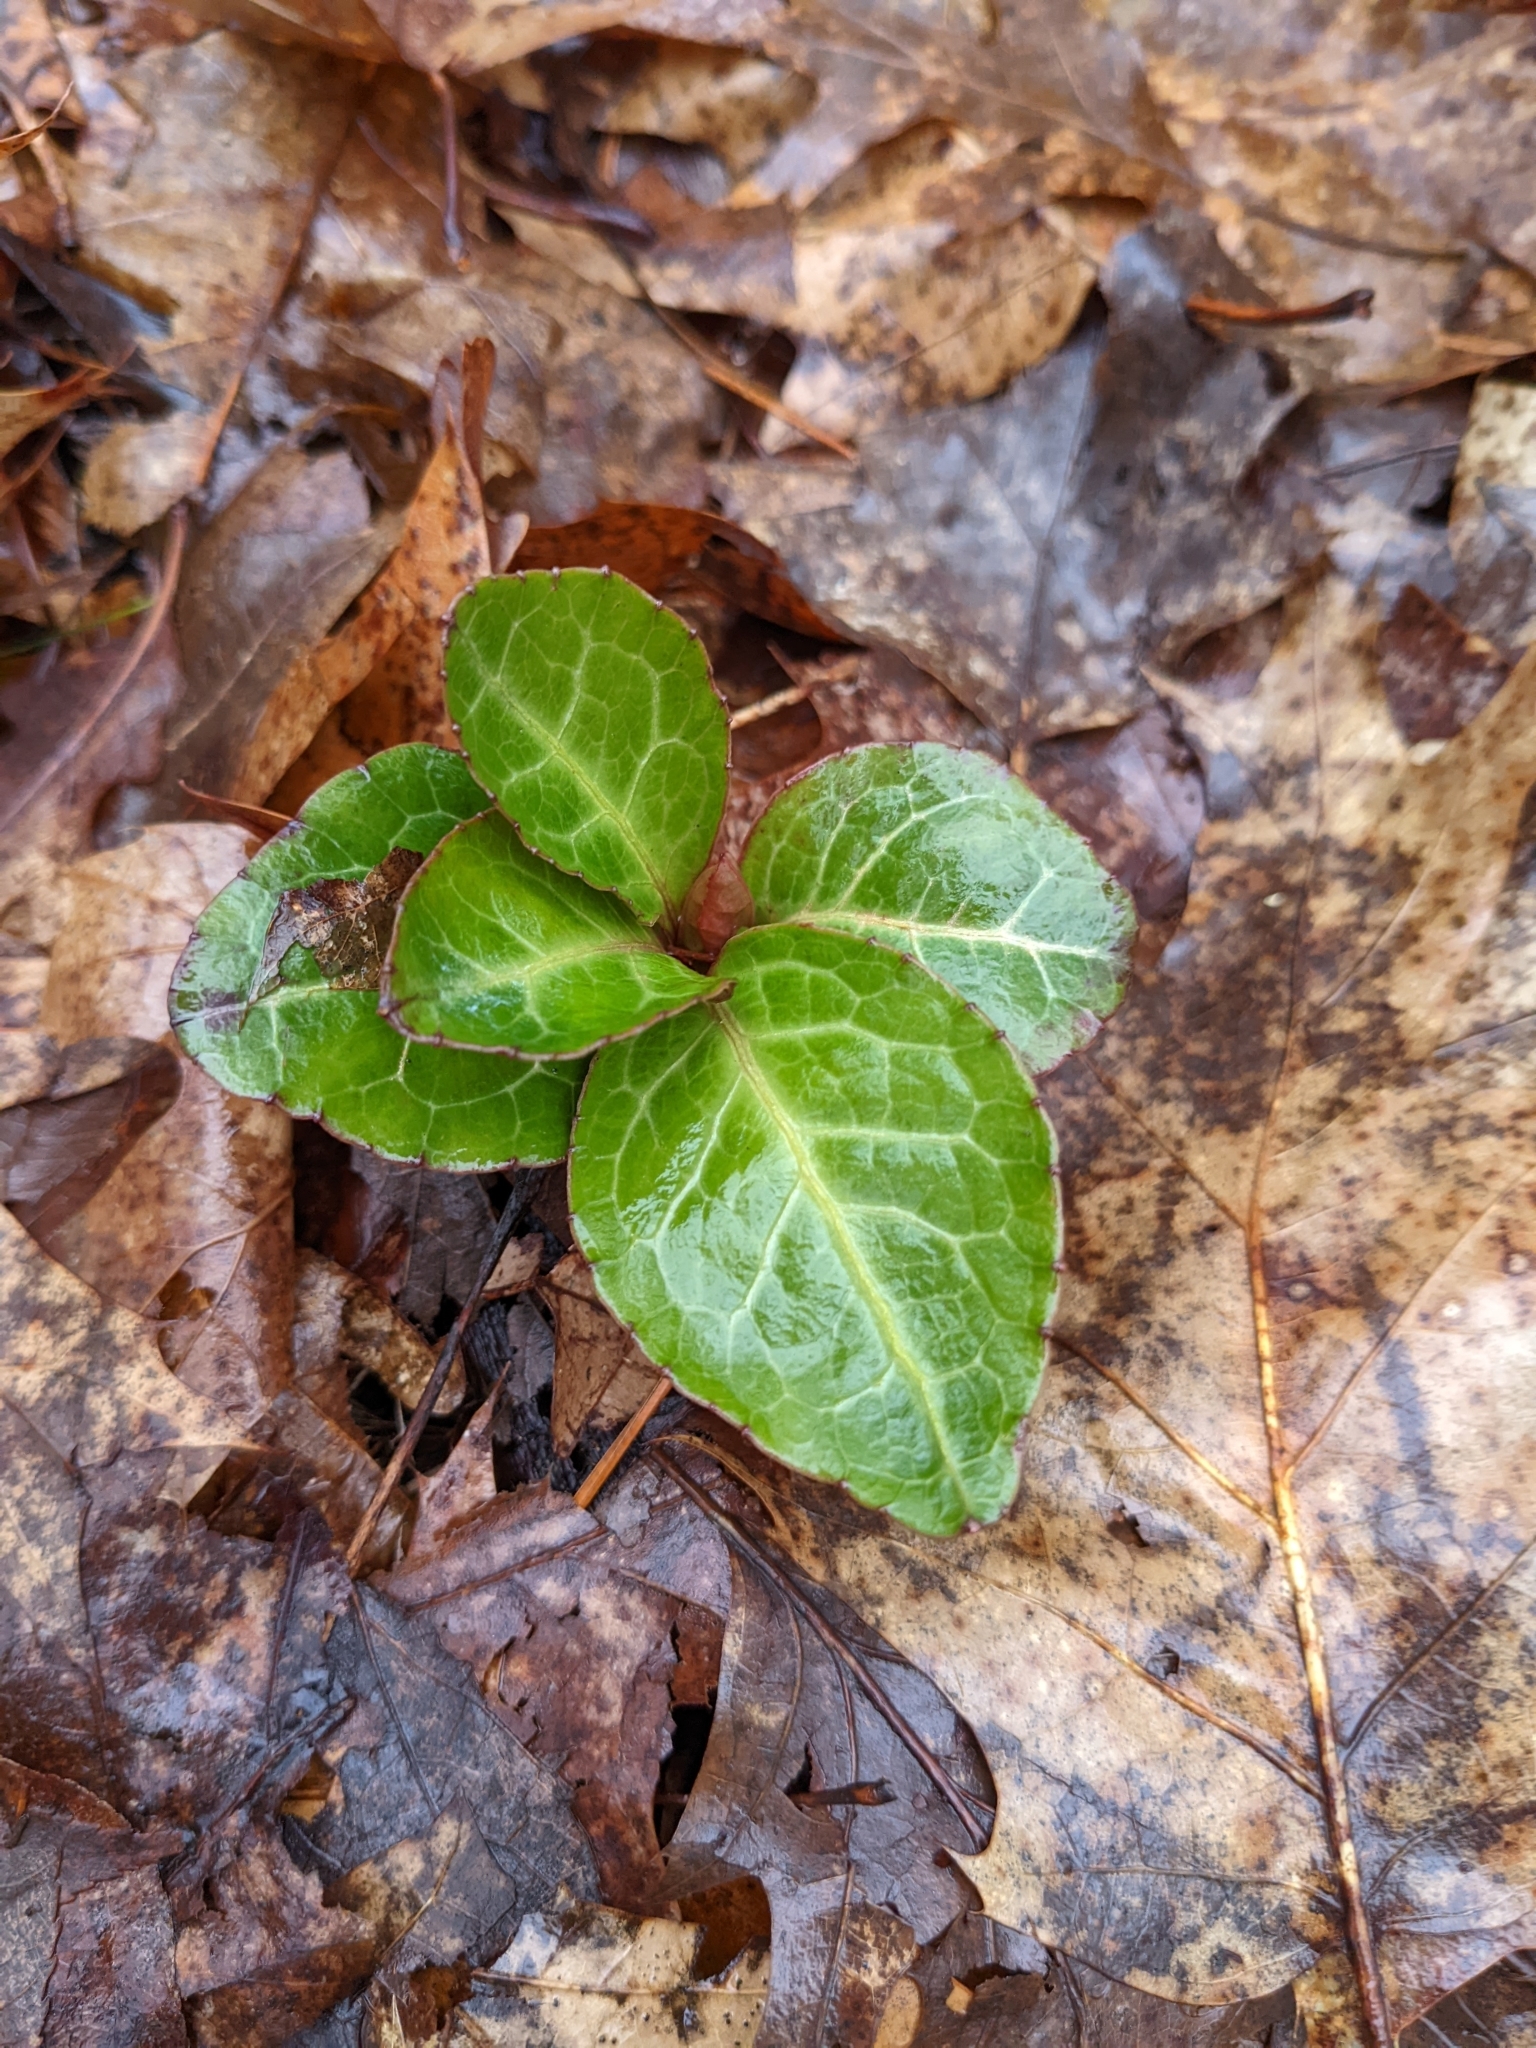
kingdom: Plantae
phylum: Tracheophyta
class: Magnoliopsida
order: Ericales
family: Ericaceae
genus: Pyrola
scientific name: Pyrola americana
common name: American wintergreen
